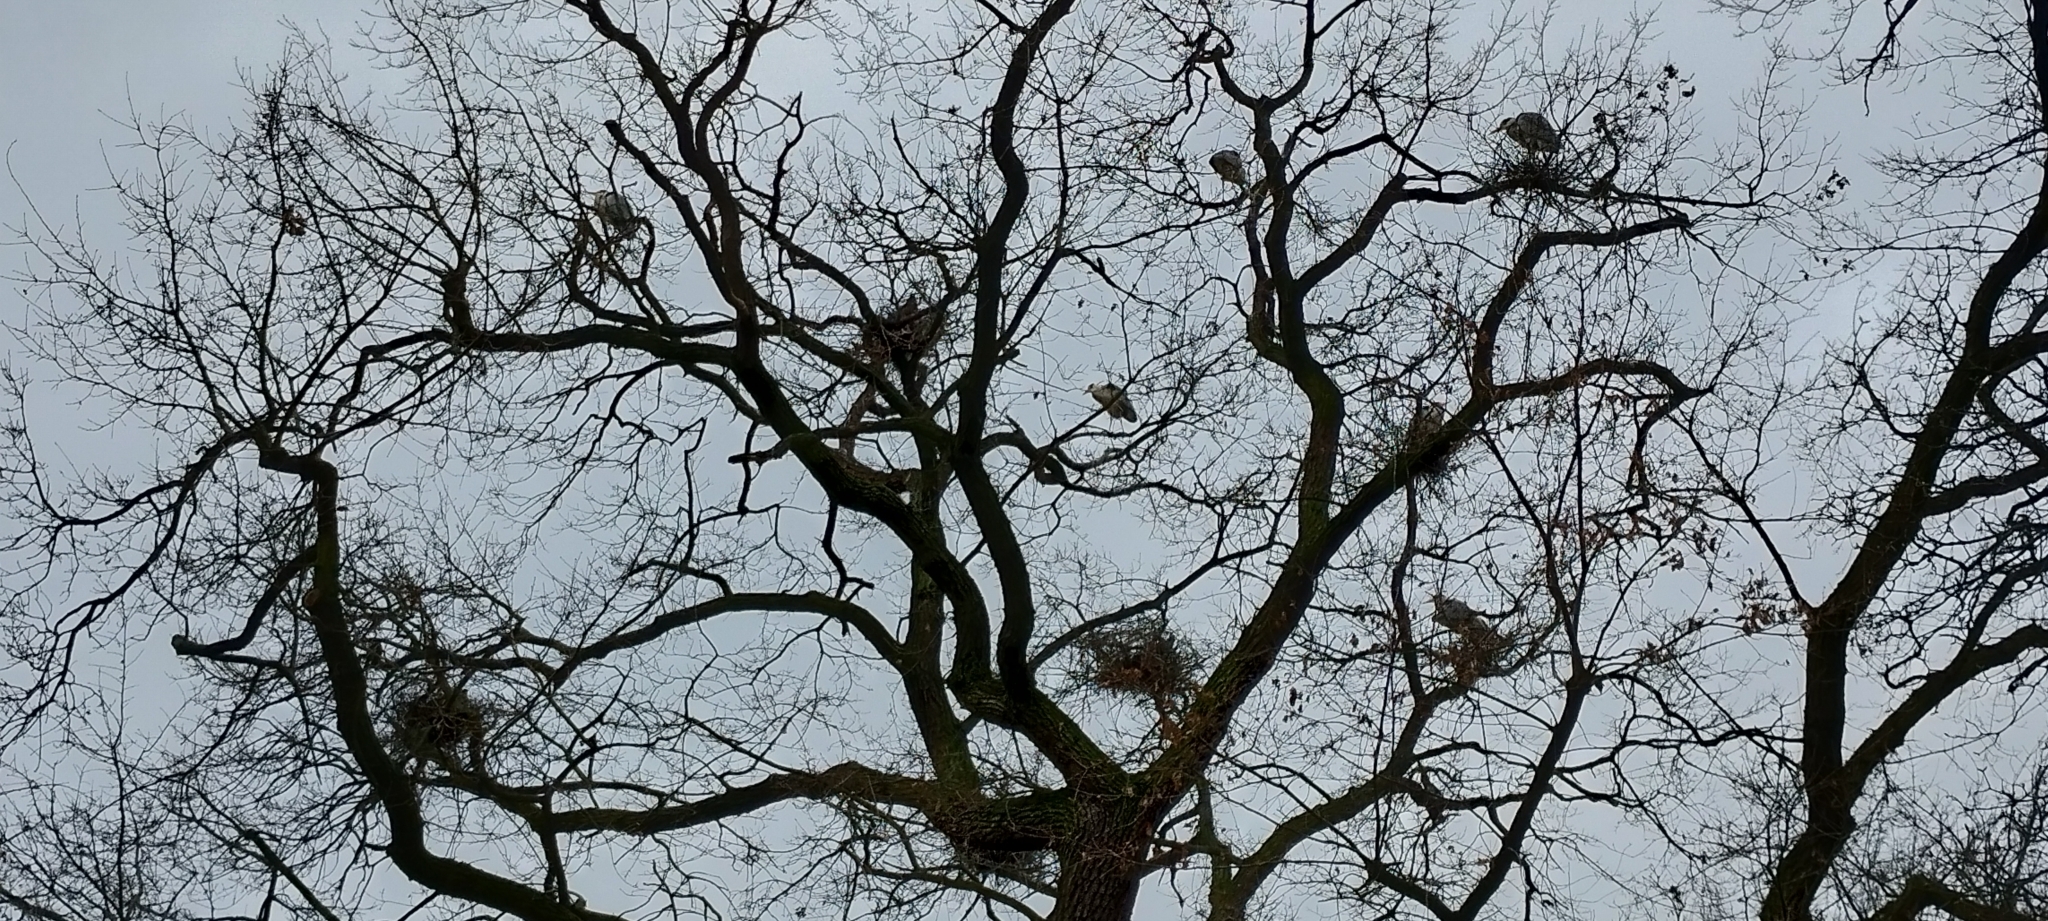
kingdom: Animalia
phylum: Chordata
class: Aves
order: Pelecaniformes
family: Ardeidae
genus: Ardea
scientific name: Ardea cinerea
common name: Grey heron
